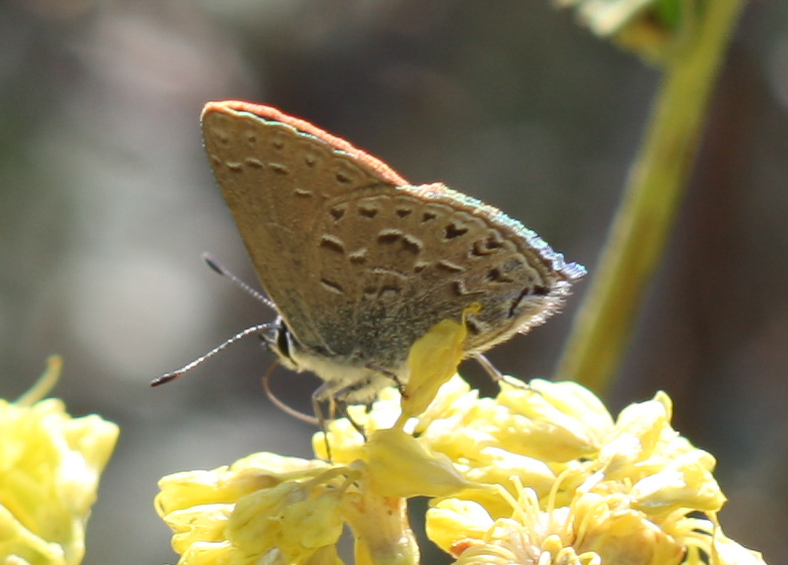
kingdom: Animalia
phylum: Arthropoda
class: Insecta
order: Lepidoptera
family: Lycaenidae
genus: Satyrium
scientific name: Satyrium behrii
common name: Behr's hairstreak
